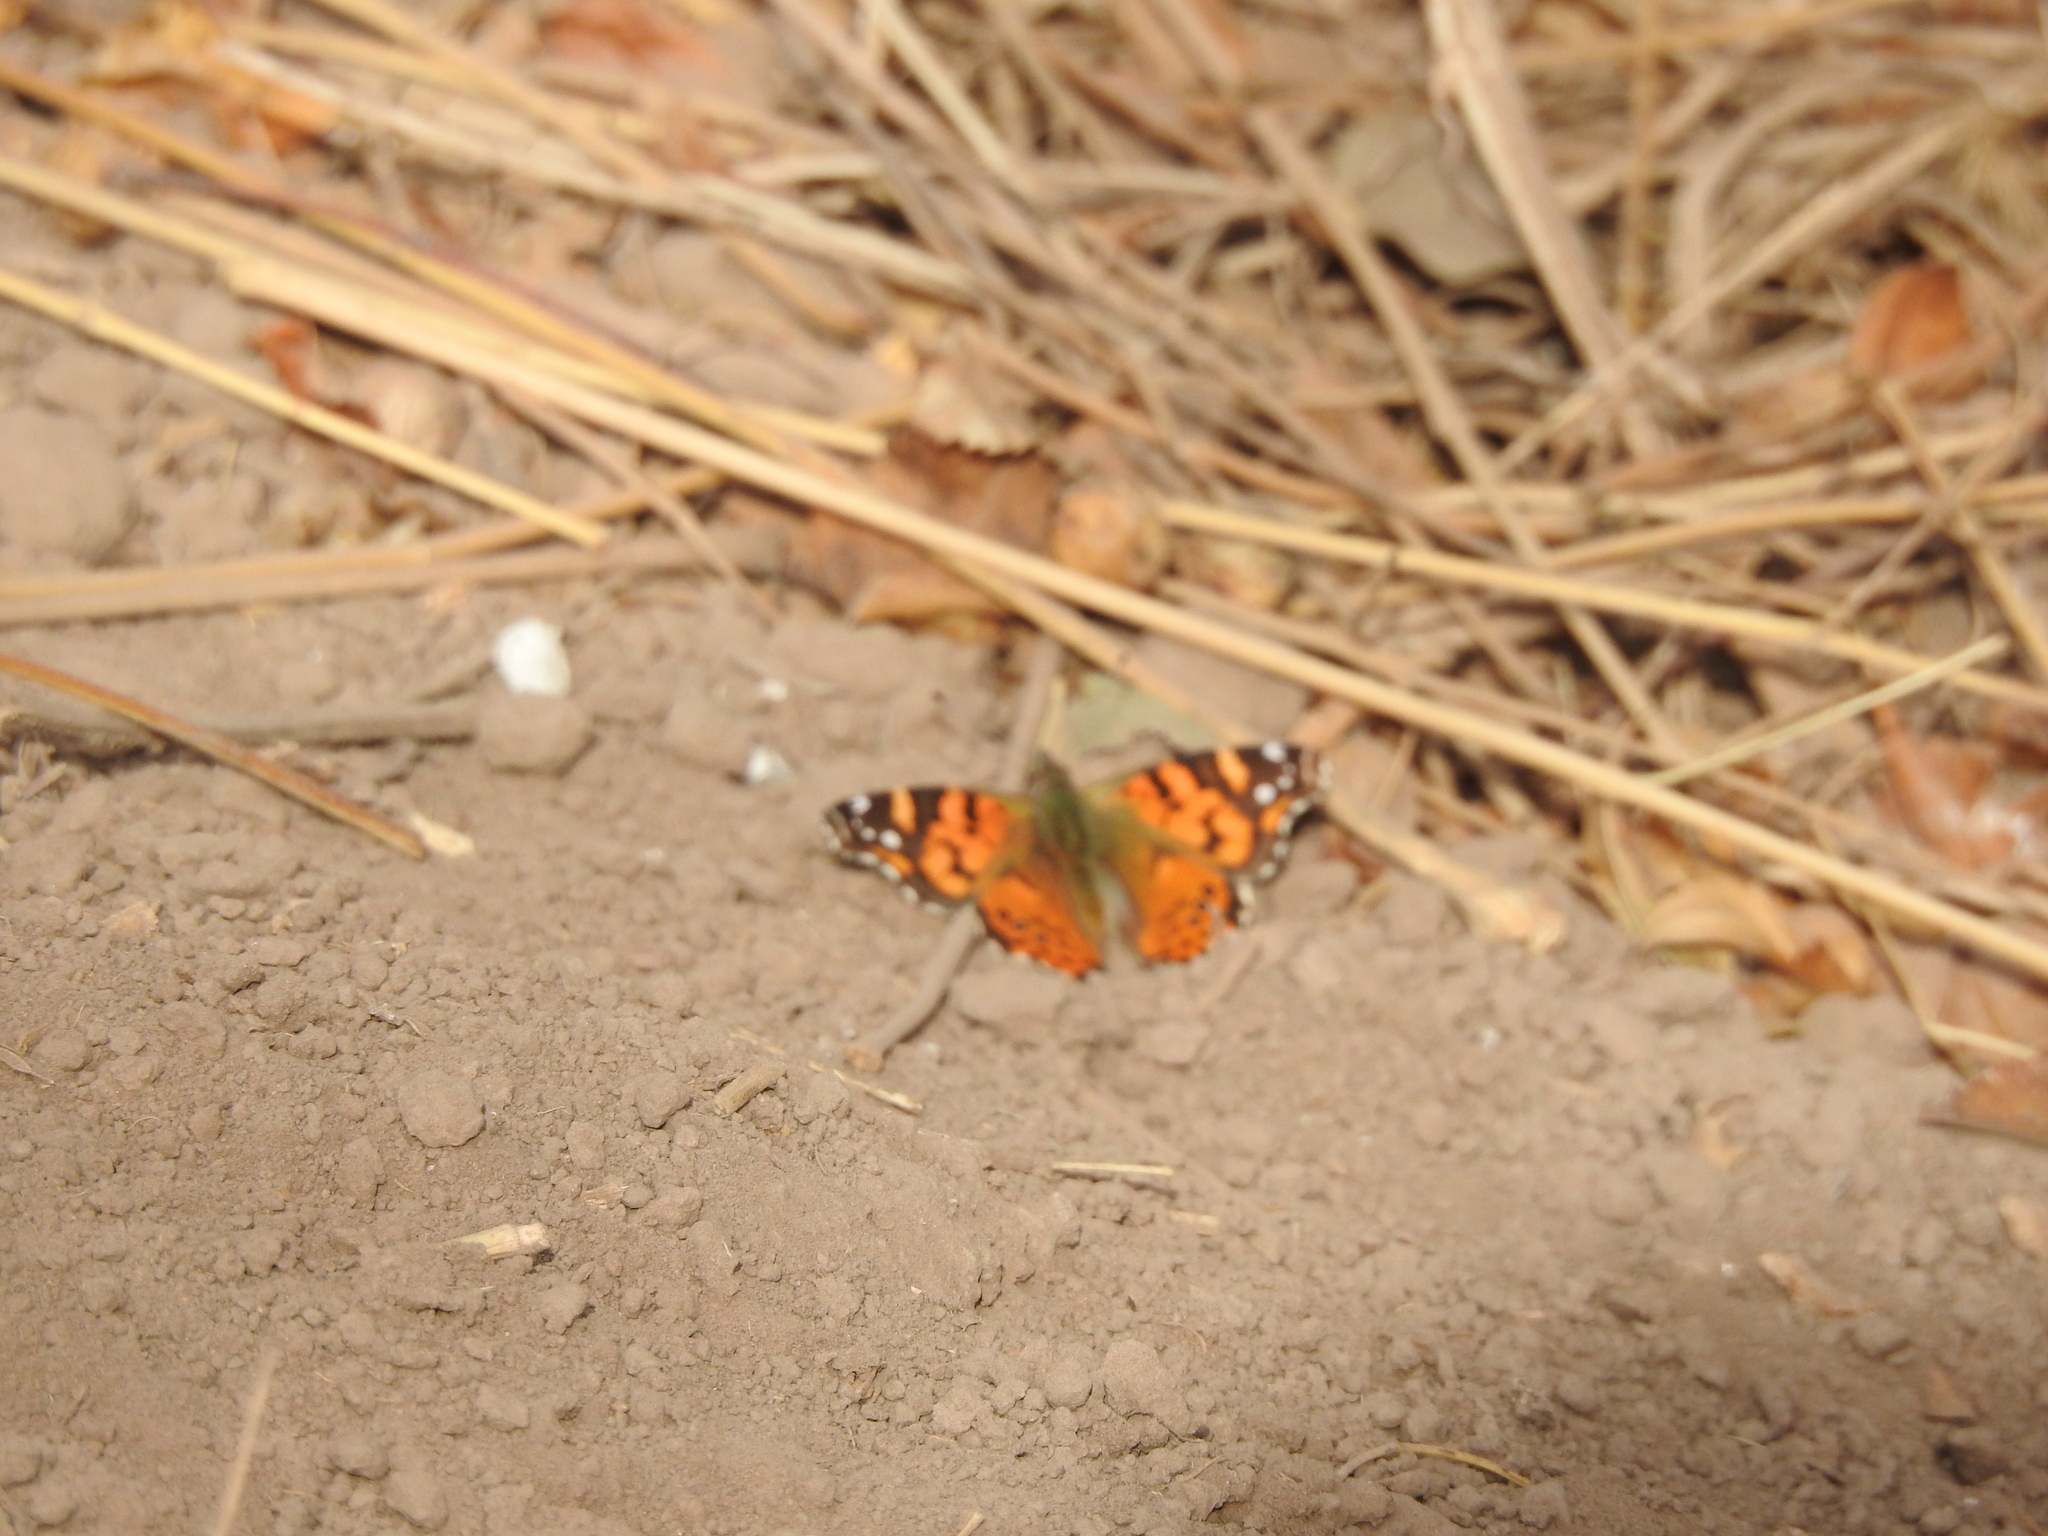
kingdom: Animalia
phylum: Arthropoda
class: Insecta
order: Lepidoptera
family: Nymphalidae
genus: Vanessa
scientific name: Vanessa carye
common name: Subtropical lady
